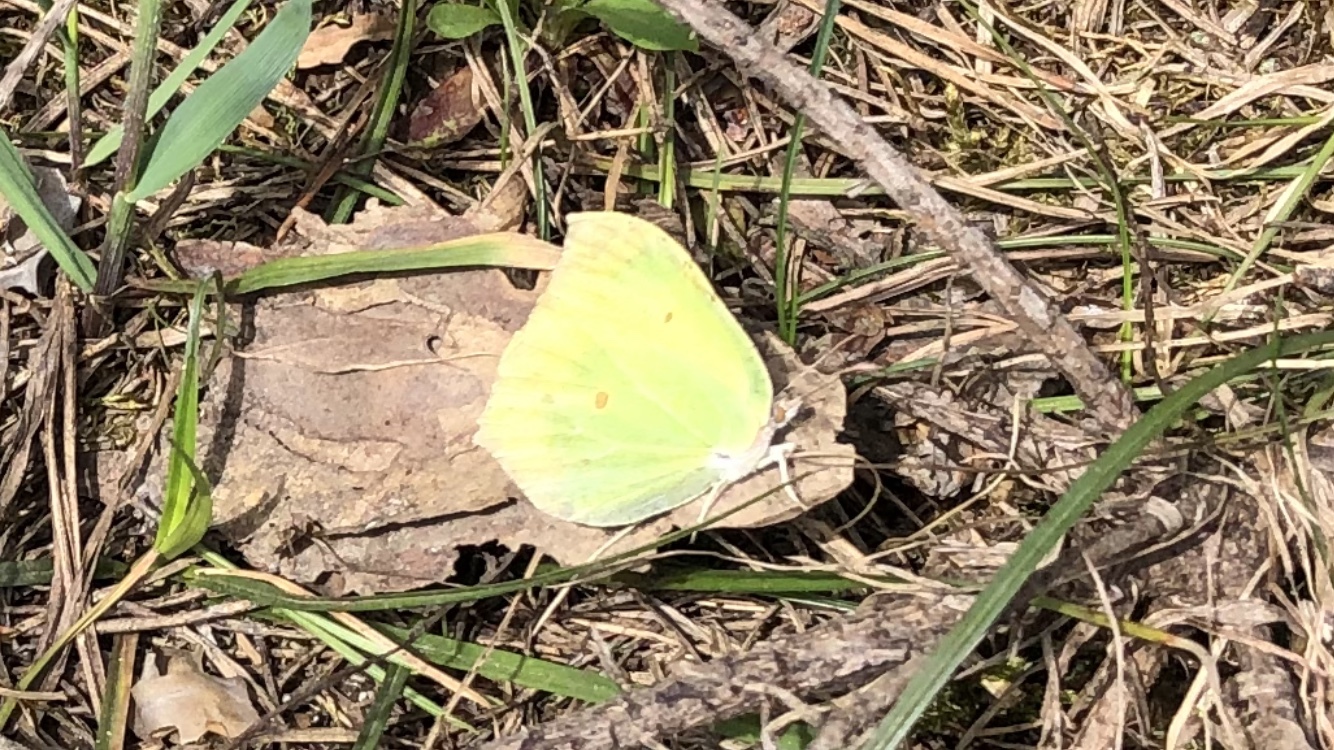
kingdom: Animalia
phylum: Arthropoda
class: Insecta
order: Lepidoptera
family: Pieridae
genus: Gonepteryx
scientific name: Gonepteryx rhamni
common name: Brimstone
